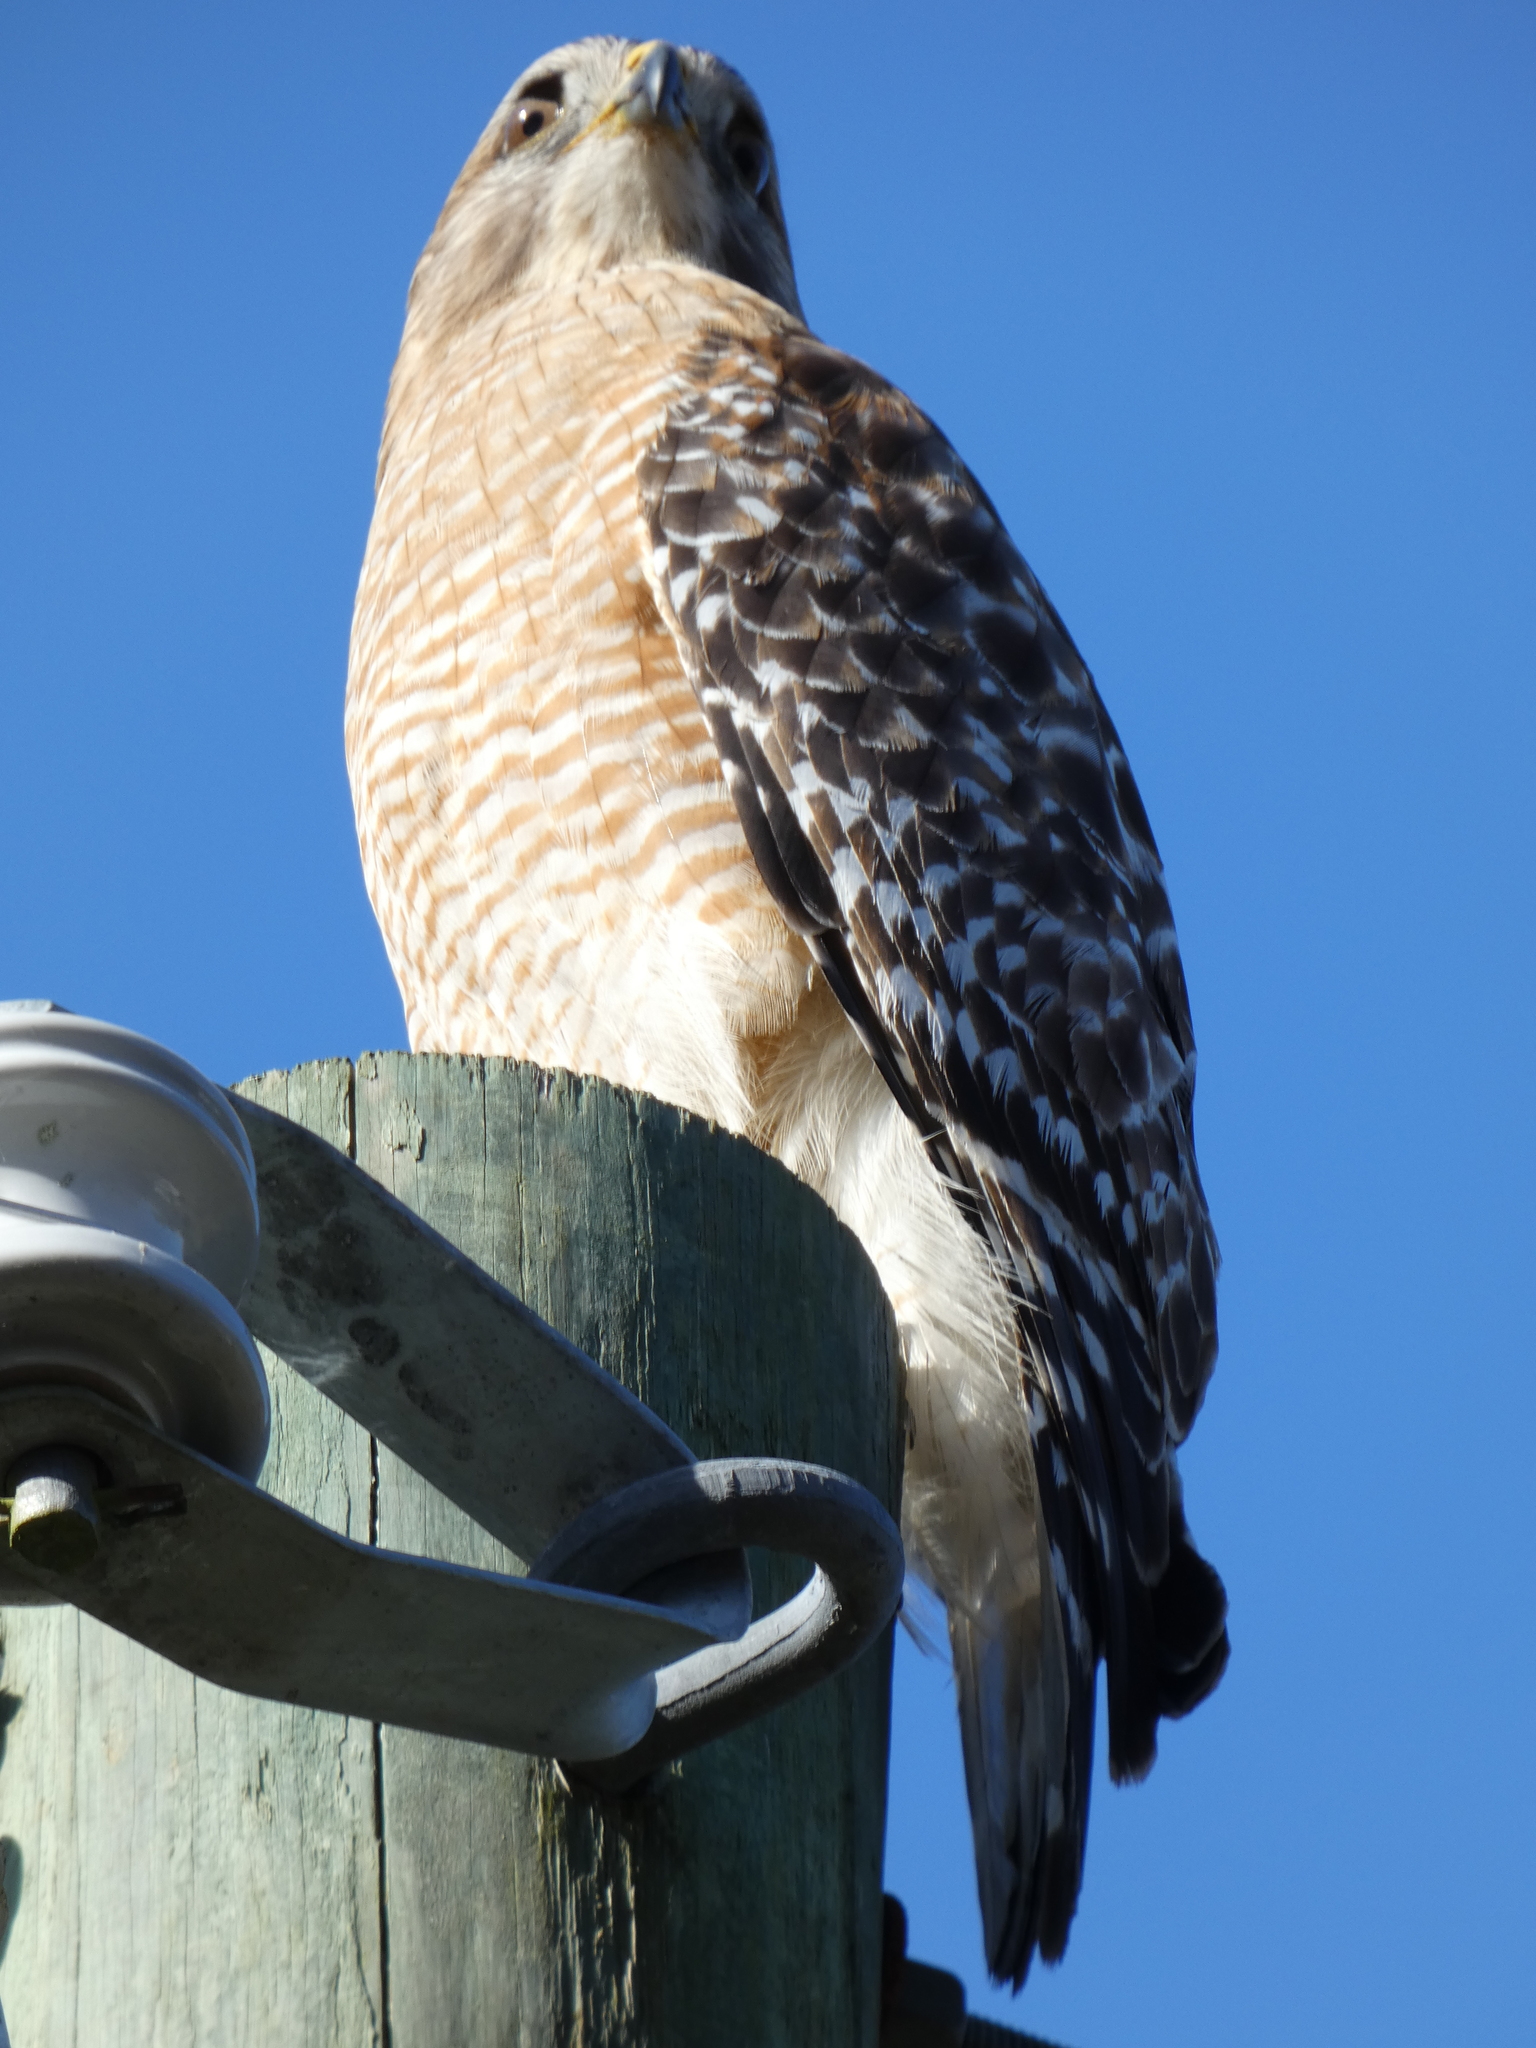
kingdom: Animalia
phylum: Chordata
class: Aves
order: Accipitriformes
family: Accipitridae
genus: Buteo
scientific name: Buteo lineatus
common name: Red-shouldered hawk
